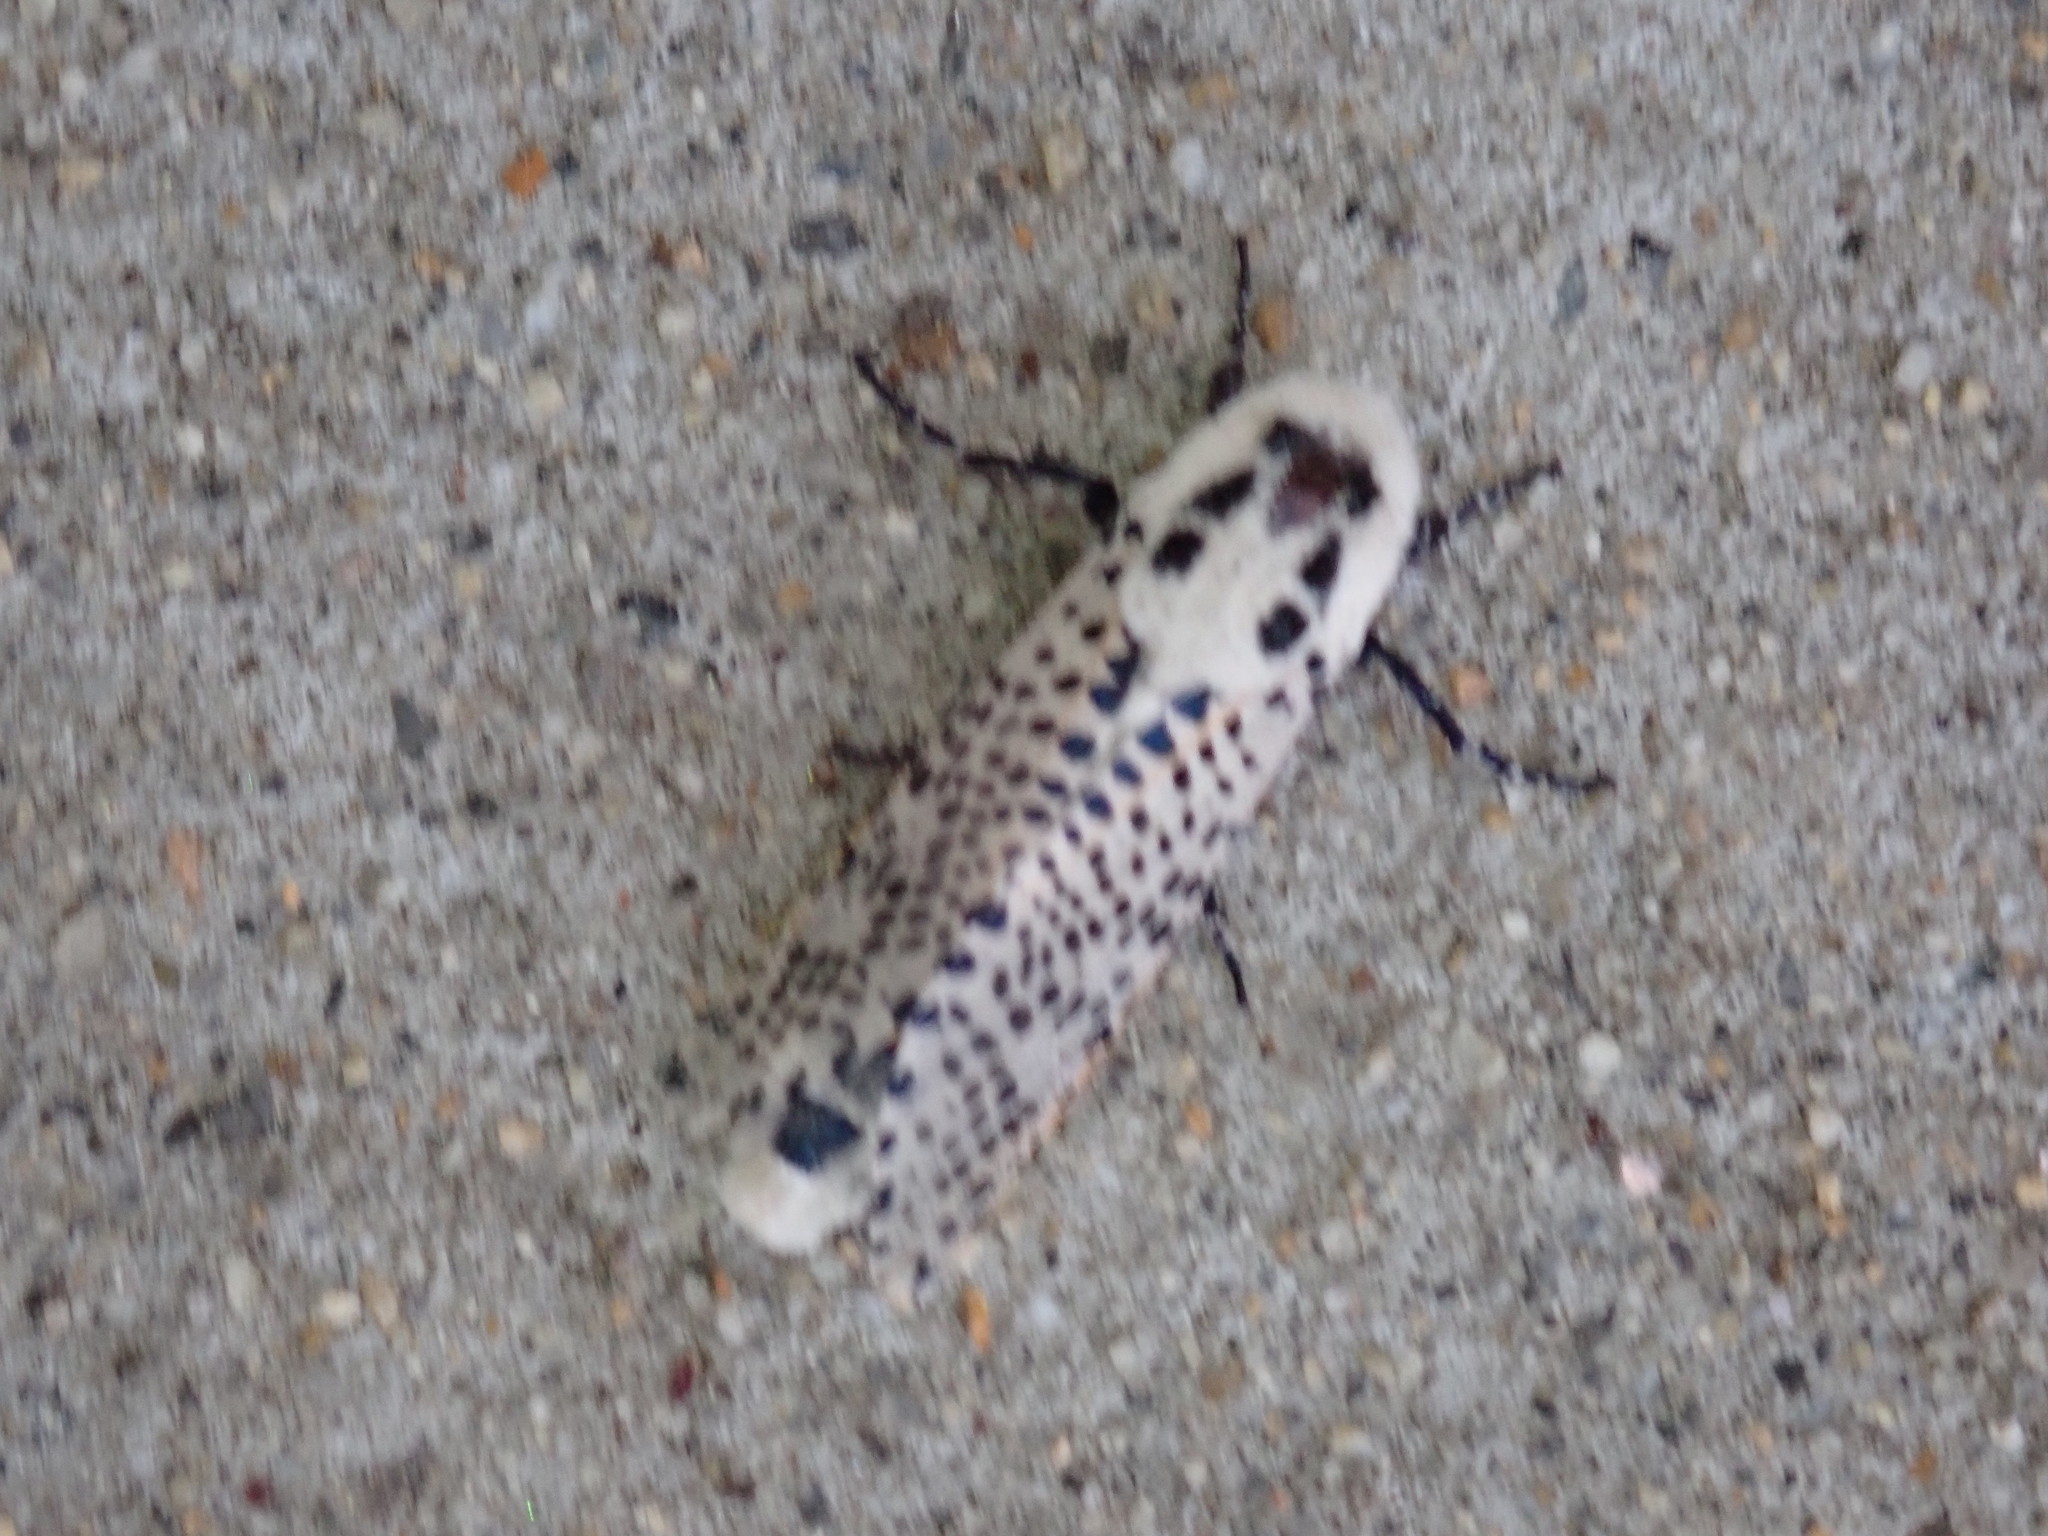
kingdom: Animalia
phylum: Arthropoda
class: Insecta
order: Lepidoptera
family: Cossidae
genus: Zeuzera
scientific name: Zeuzera pyrina
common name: Leopard moth
